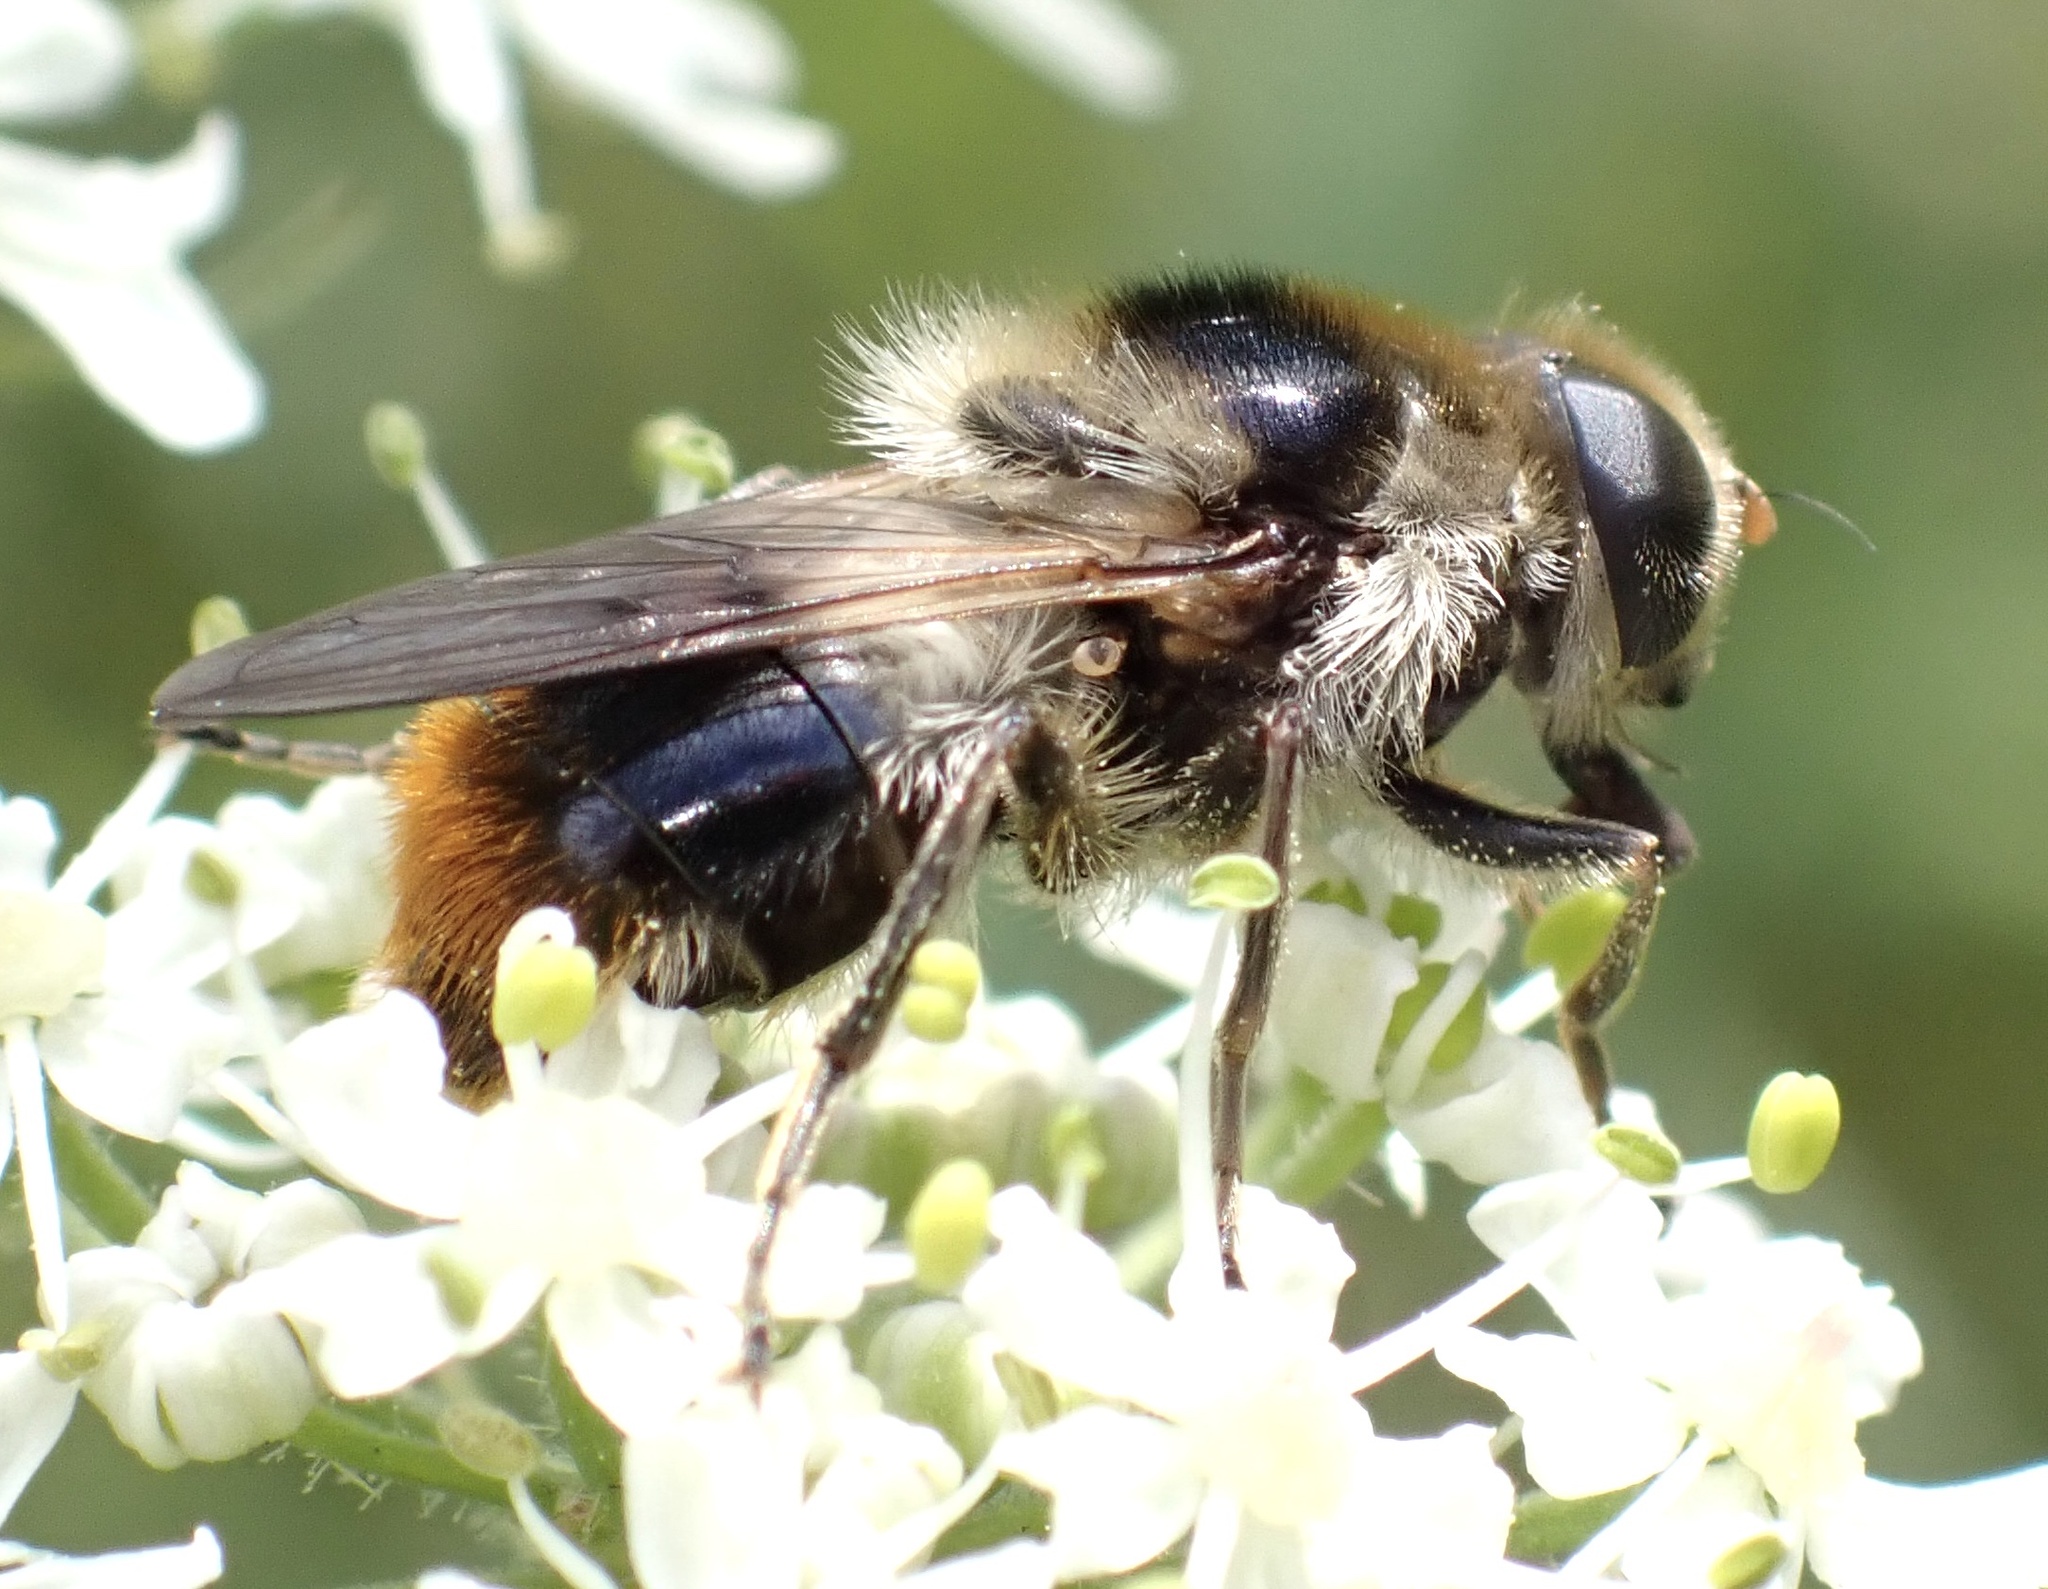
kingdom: Animalia
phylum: Arthropoda
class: Insecta
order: Diptera
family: Syrphidae
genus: Cheilosia
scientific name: Cheilosia illustrata
